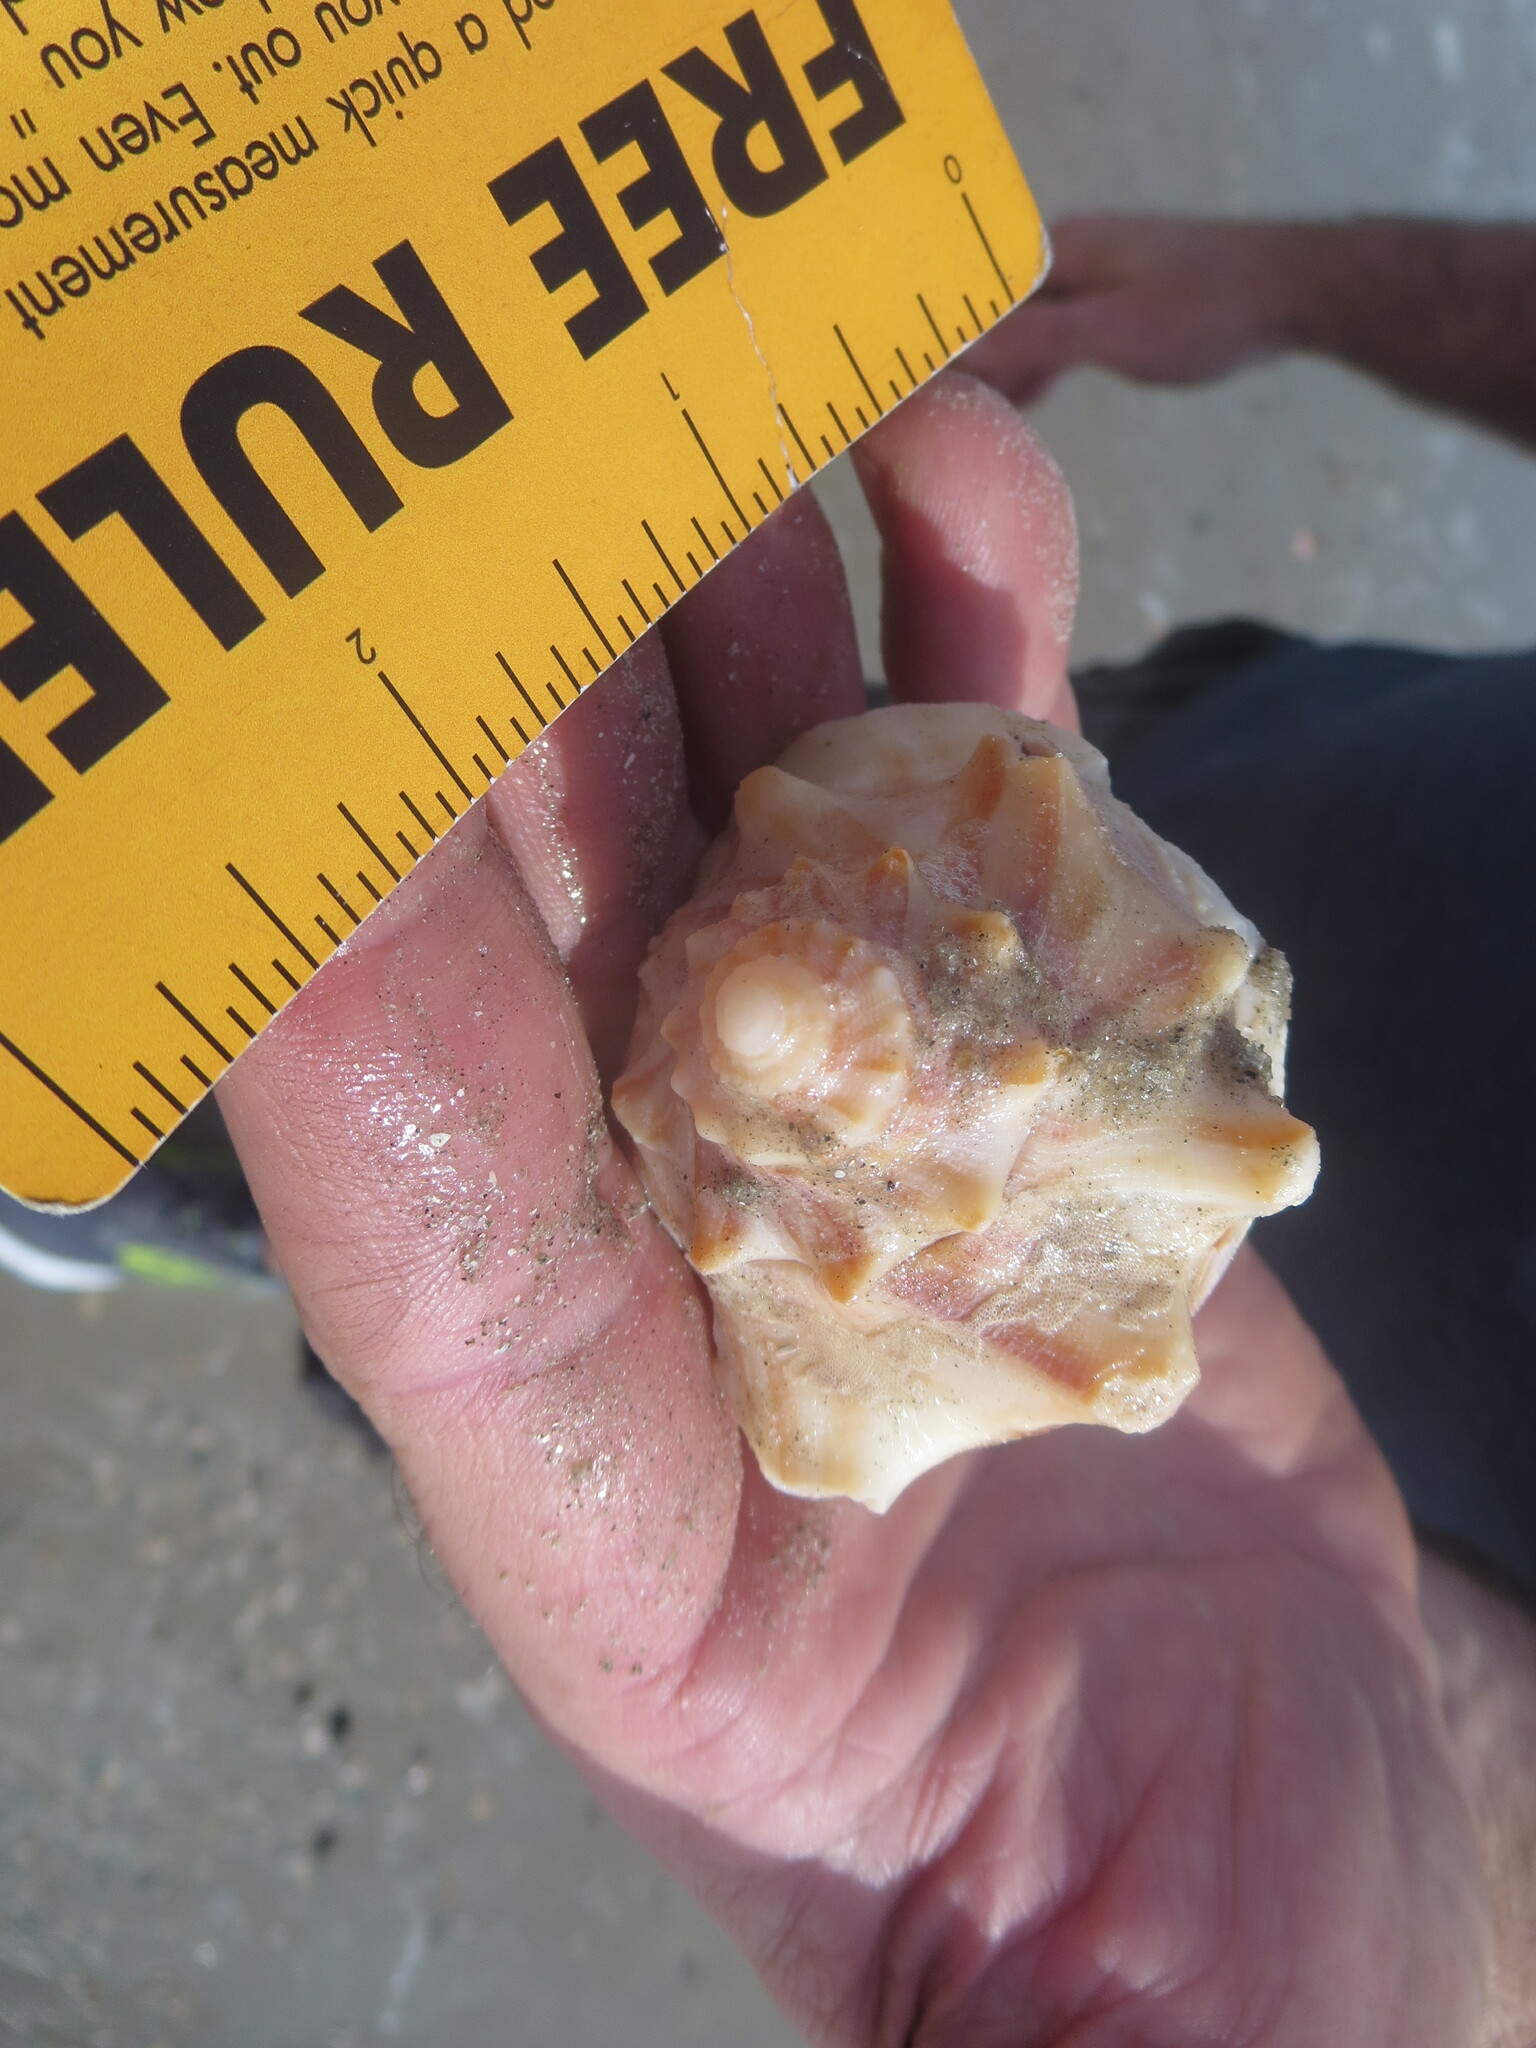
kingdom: Animalia
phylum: Mollusca
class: Gastropoda
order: Neogastropoda
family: Busyconidae
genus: Busycon
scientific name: Busycon carica
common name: Knobbed whelk
